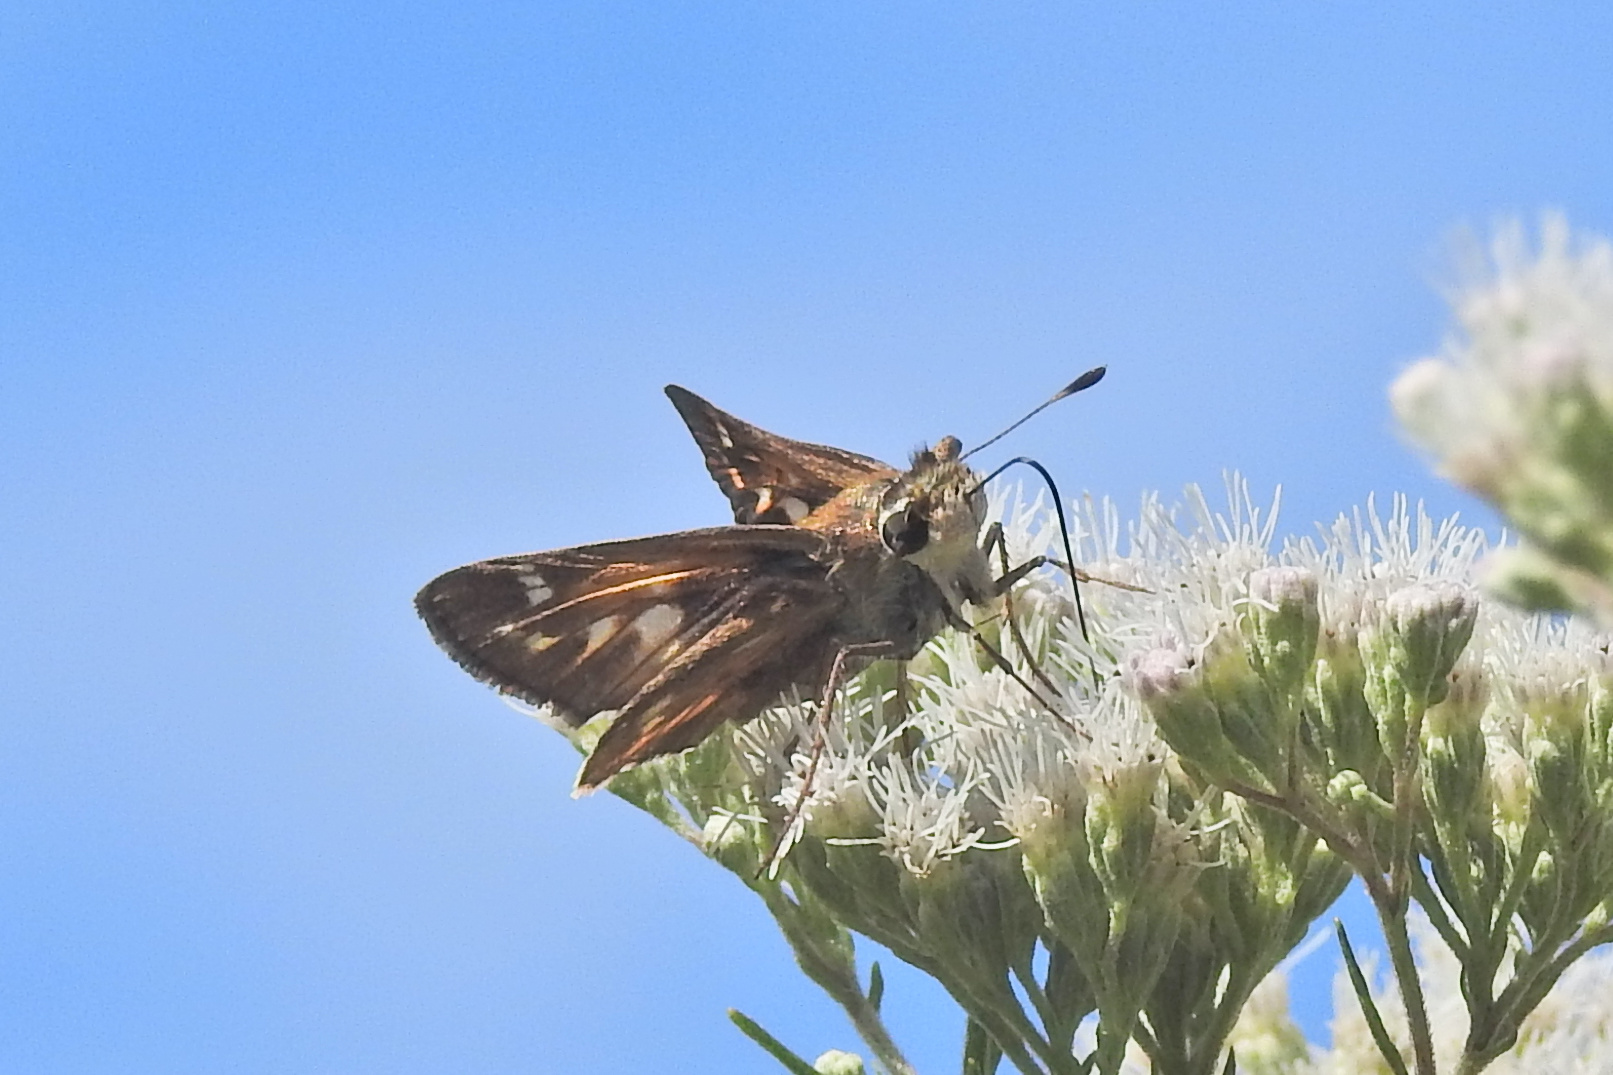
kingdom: Animalia
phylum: Arthropoda
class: Insecta
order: Lepidoptera
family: Hesperiidae
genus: Atalopedes
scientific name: Atalopedes
